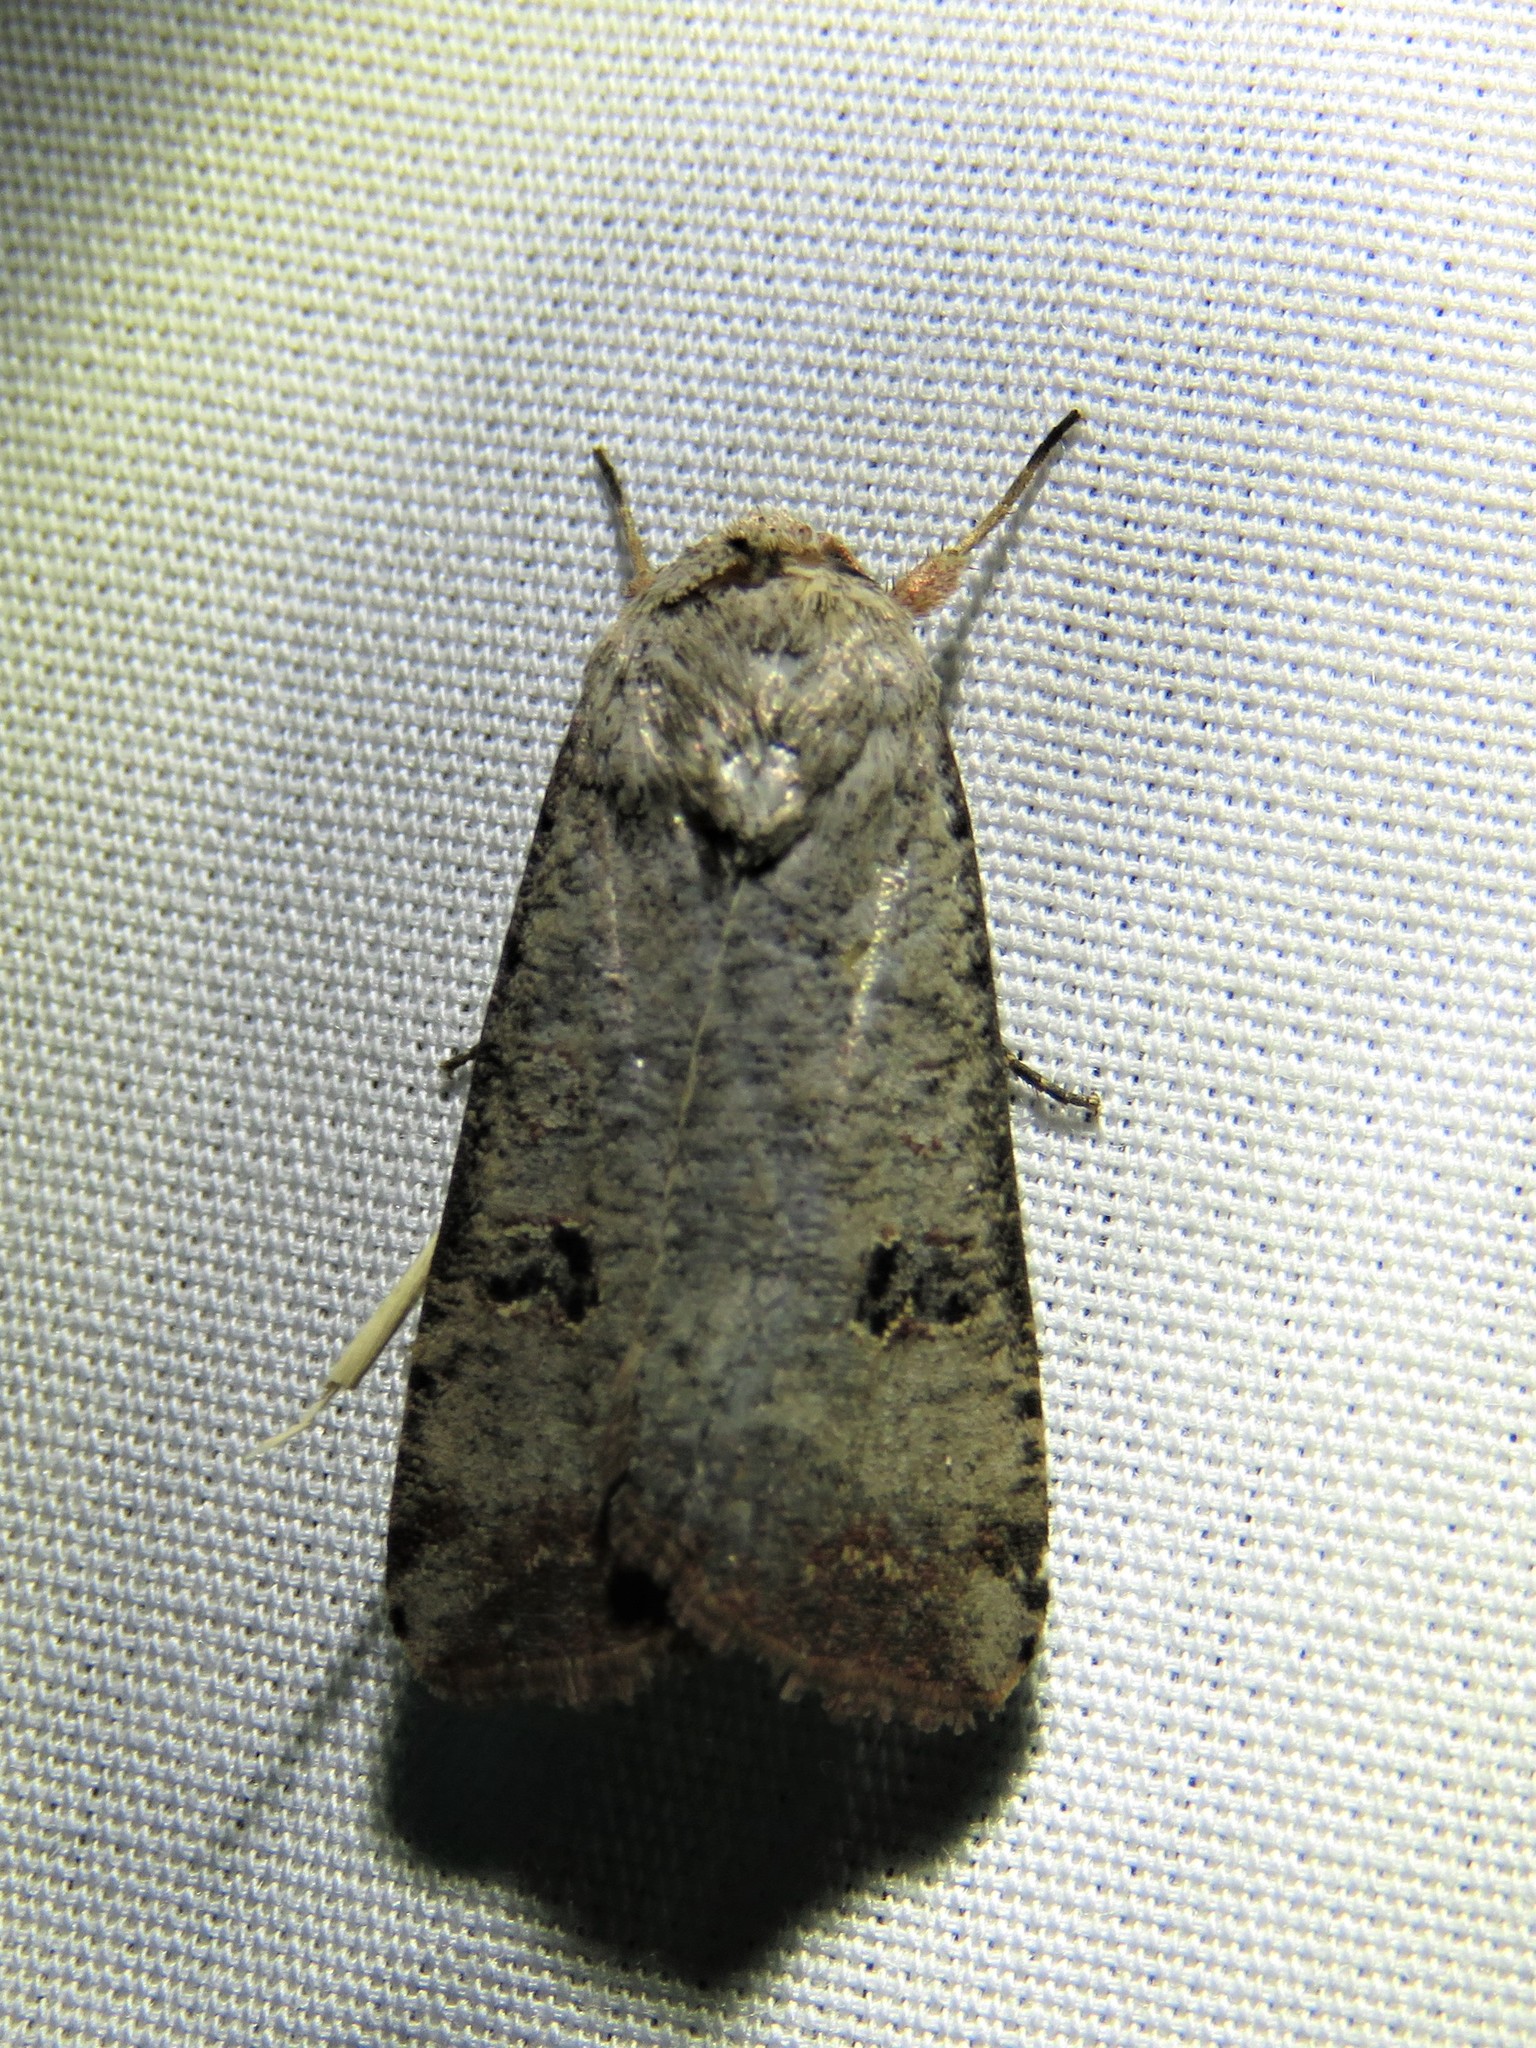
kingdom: Animalia
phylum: Arthropoda
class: Insecta
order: Lepidoptera
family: Noctuidae
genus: Anicla
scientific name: Anicla infecta
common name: Green cutworm
